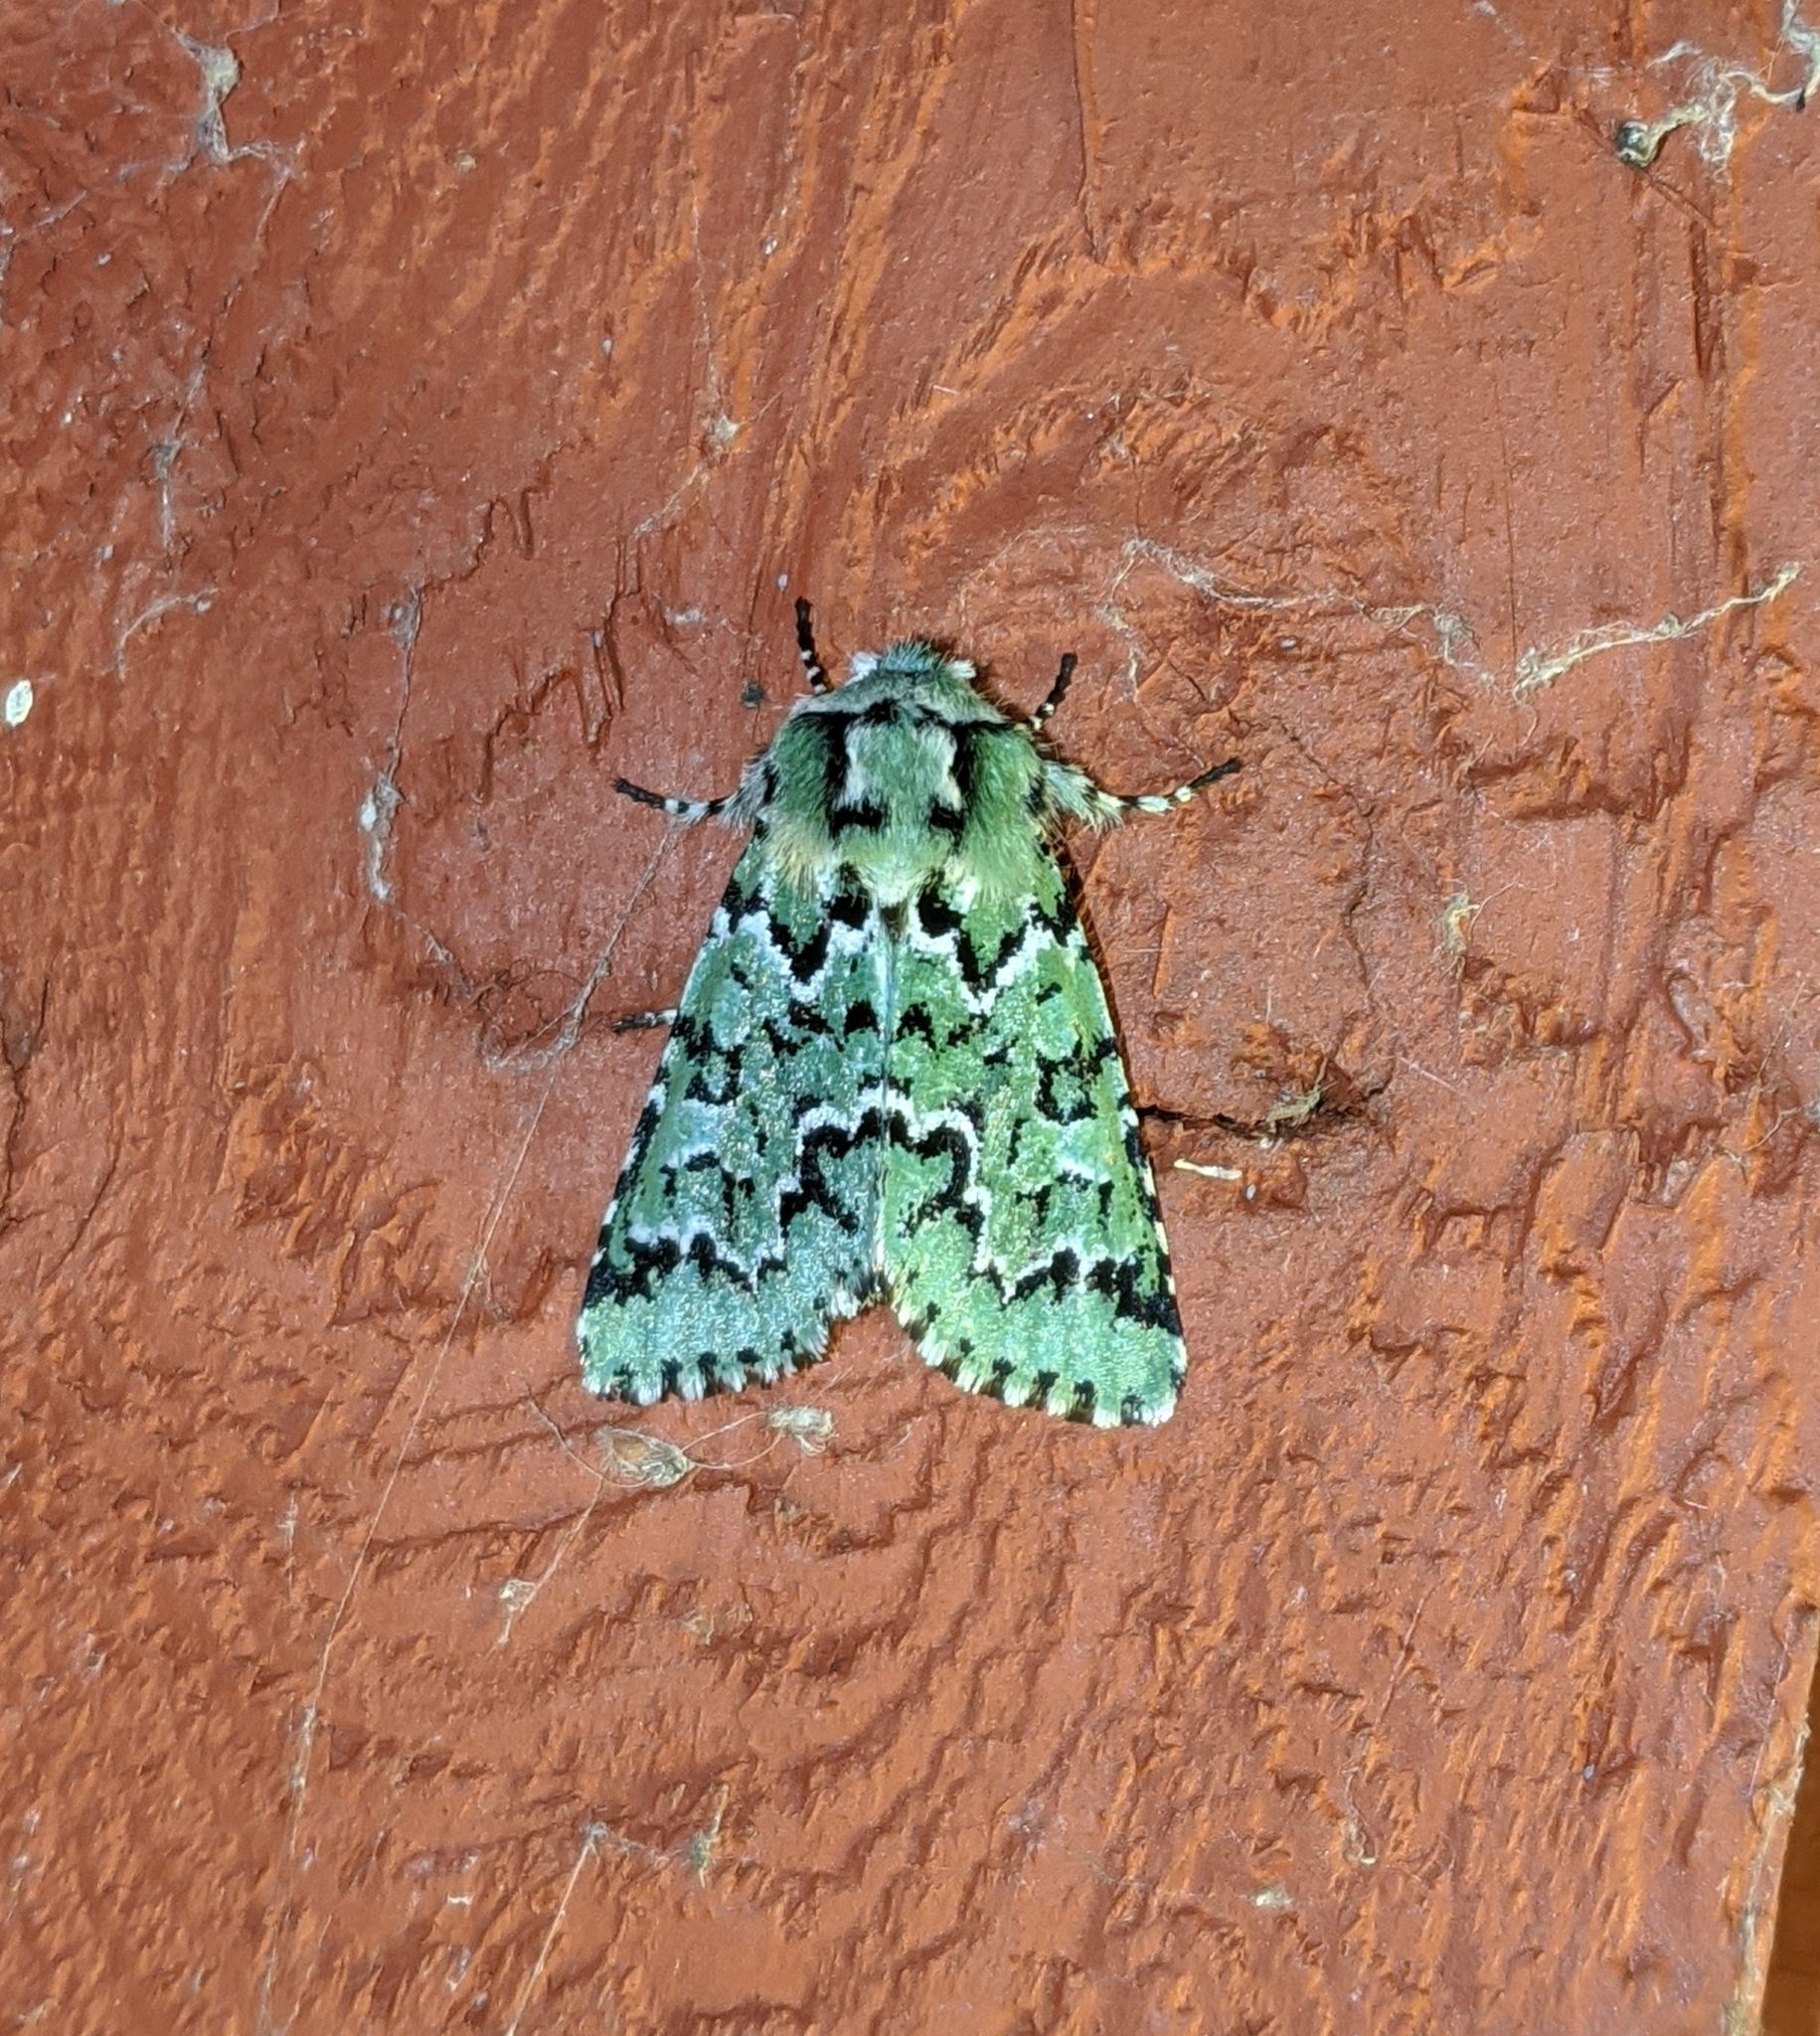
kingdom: Animalia
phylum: Arthropoda
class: Insecta
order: Lepidoptera
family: Noctuidae
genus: Feralia
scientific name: Feralia deceptiva
